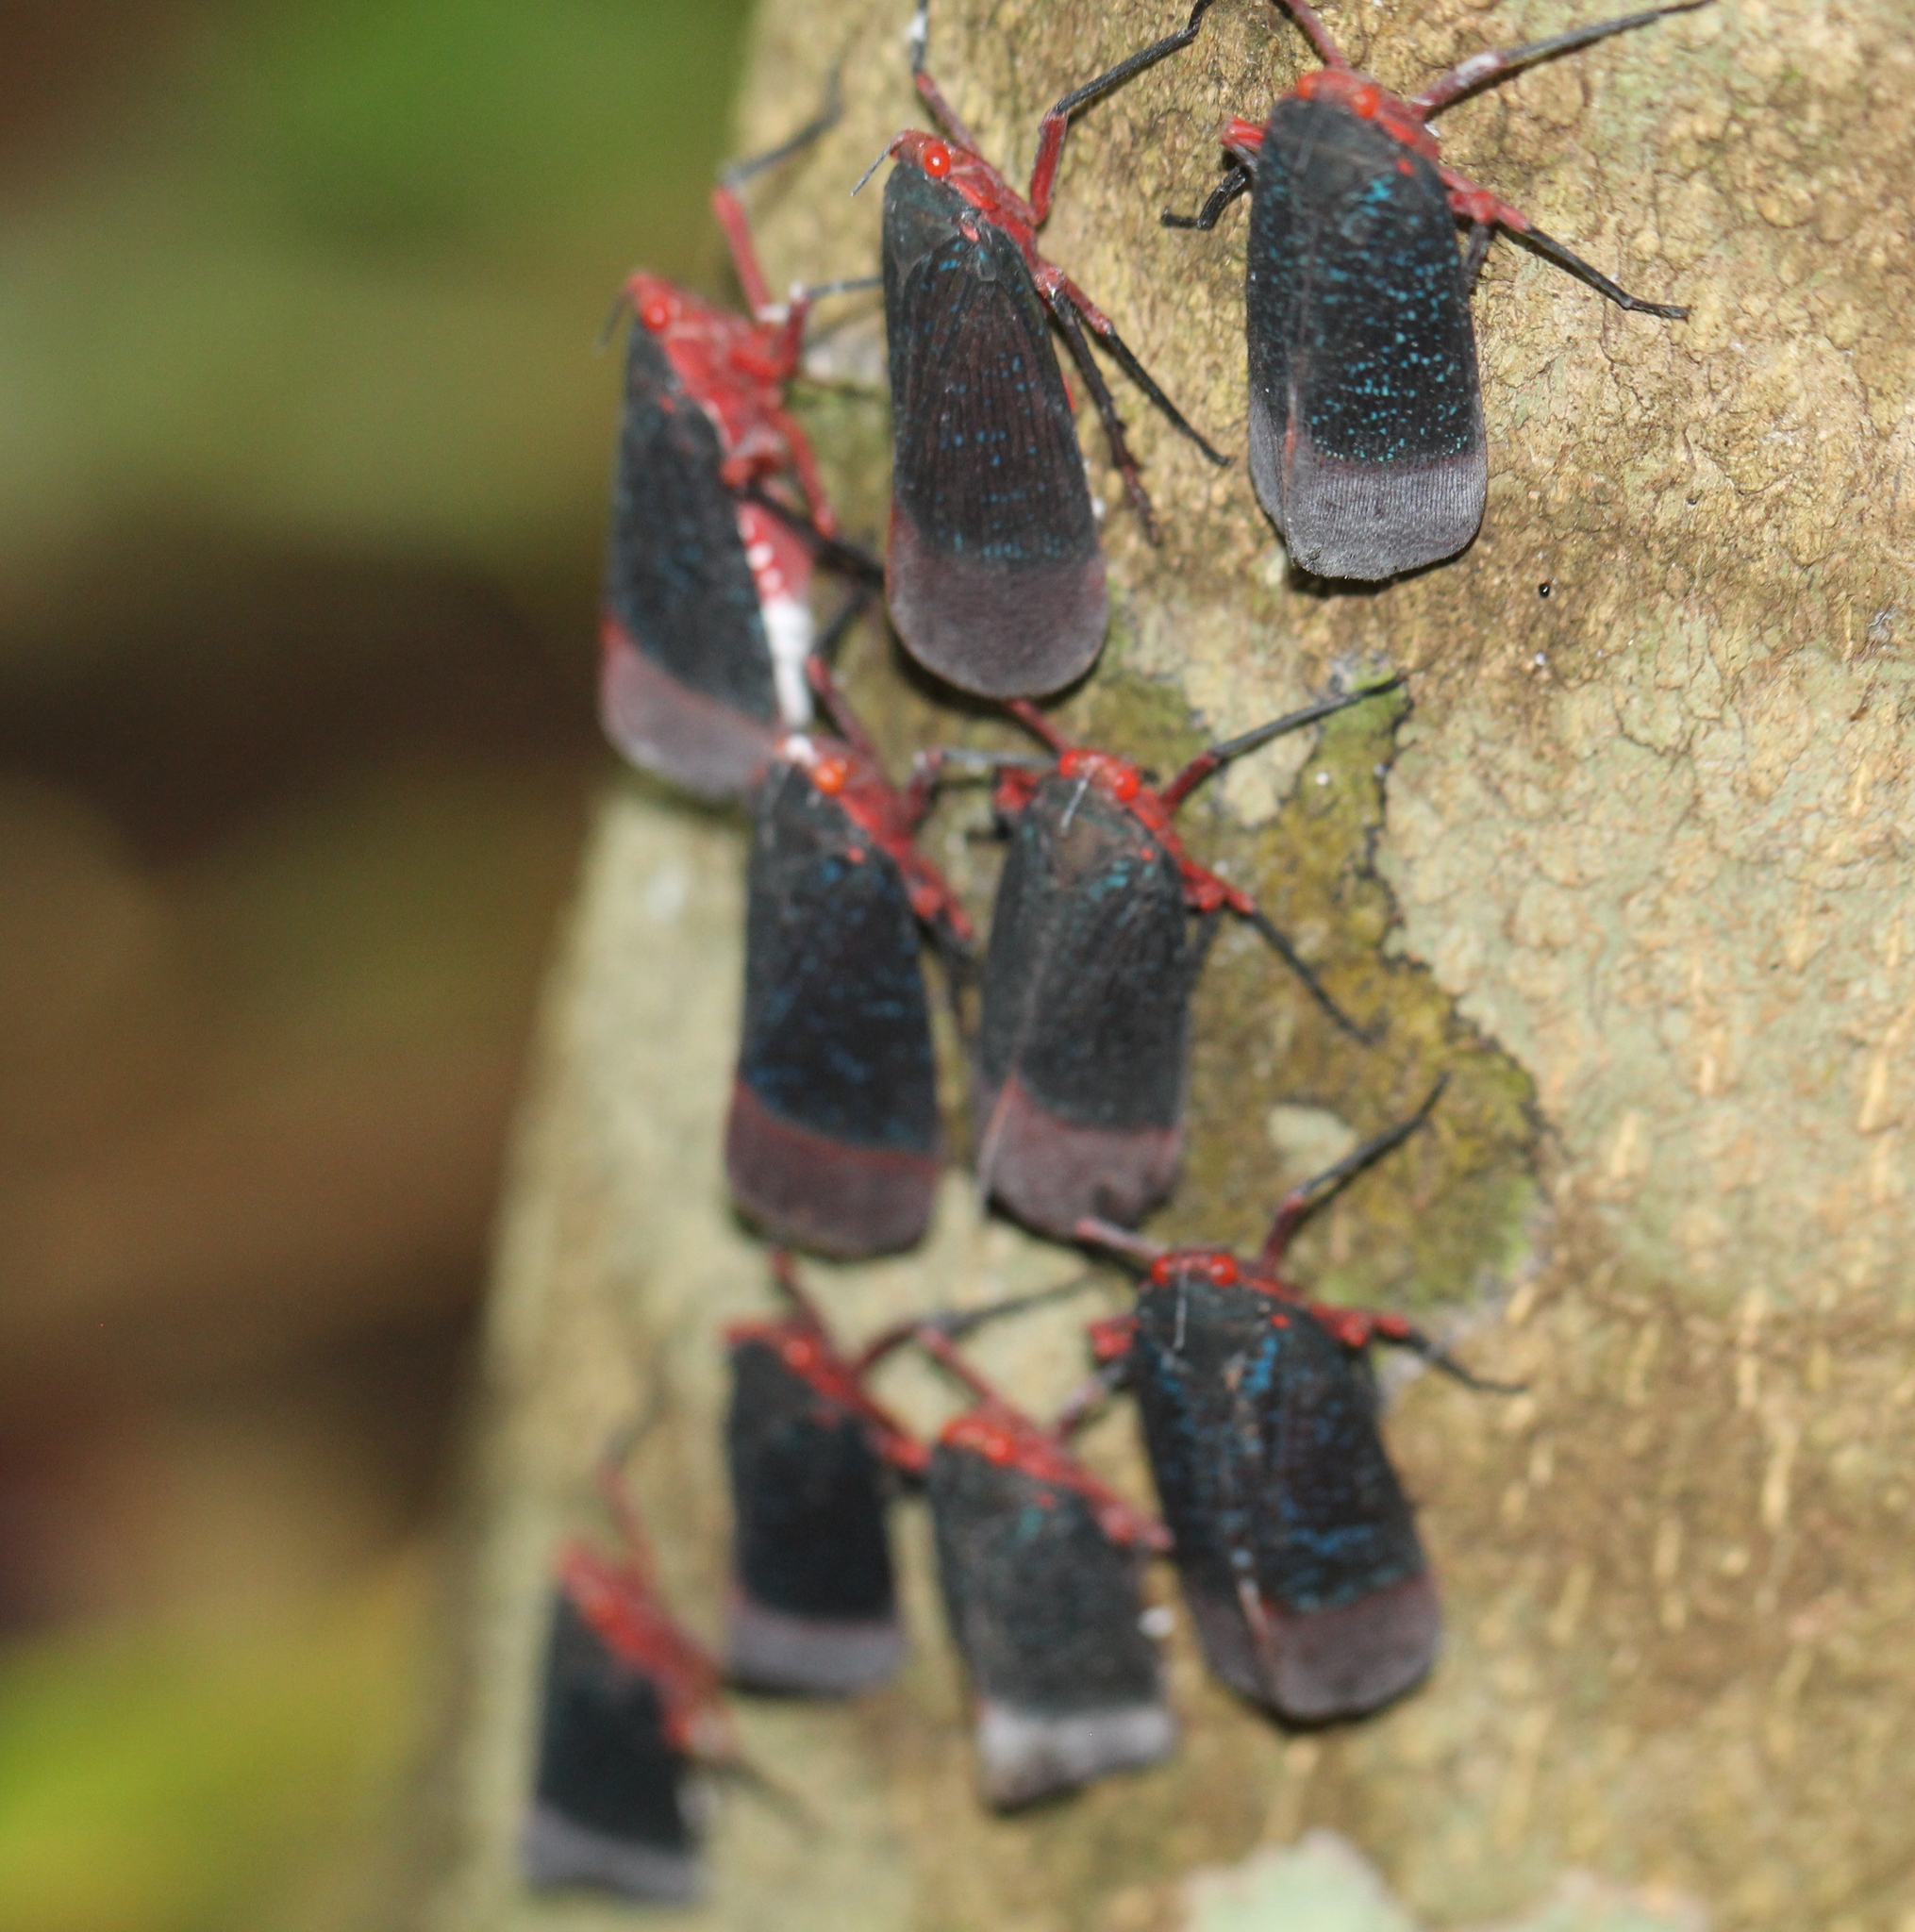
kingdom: Animalia
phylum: Arthropoda
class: Insecta
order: Hemiptera
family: Fulgoridae
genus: Kalidasa
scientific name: Kalidasa lanata
